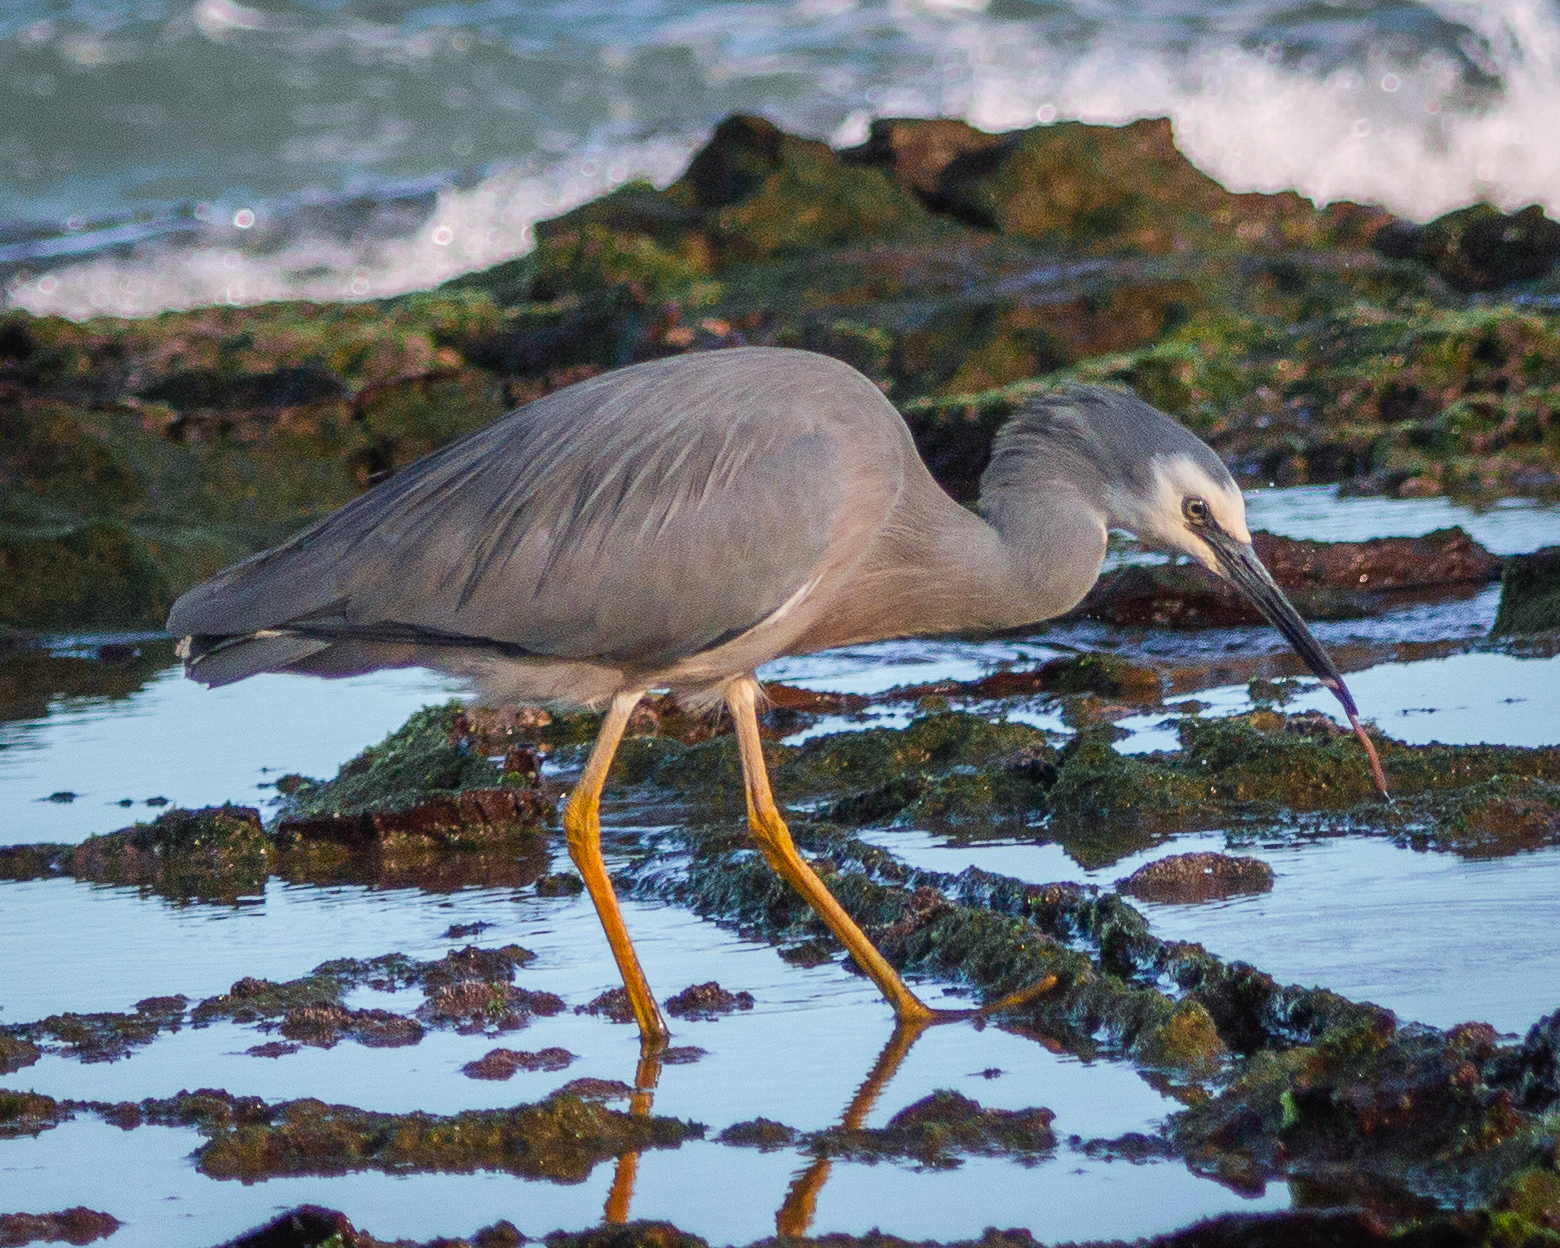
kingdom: Animalia
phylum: Chordata
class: Aves
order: Pelecaniformes
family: Ardeidae
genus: Egretta
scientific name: Egretta novaehollandiae
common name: White-faced heron
